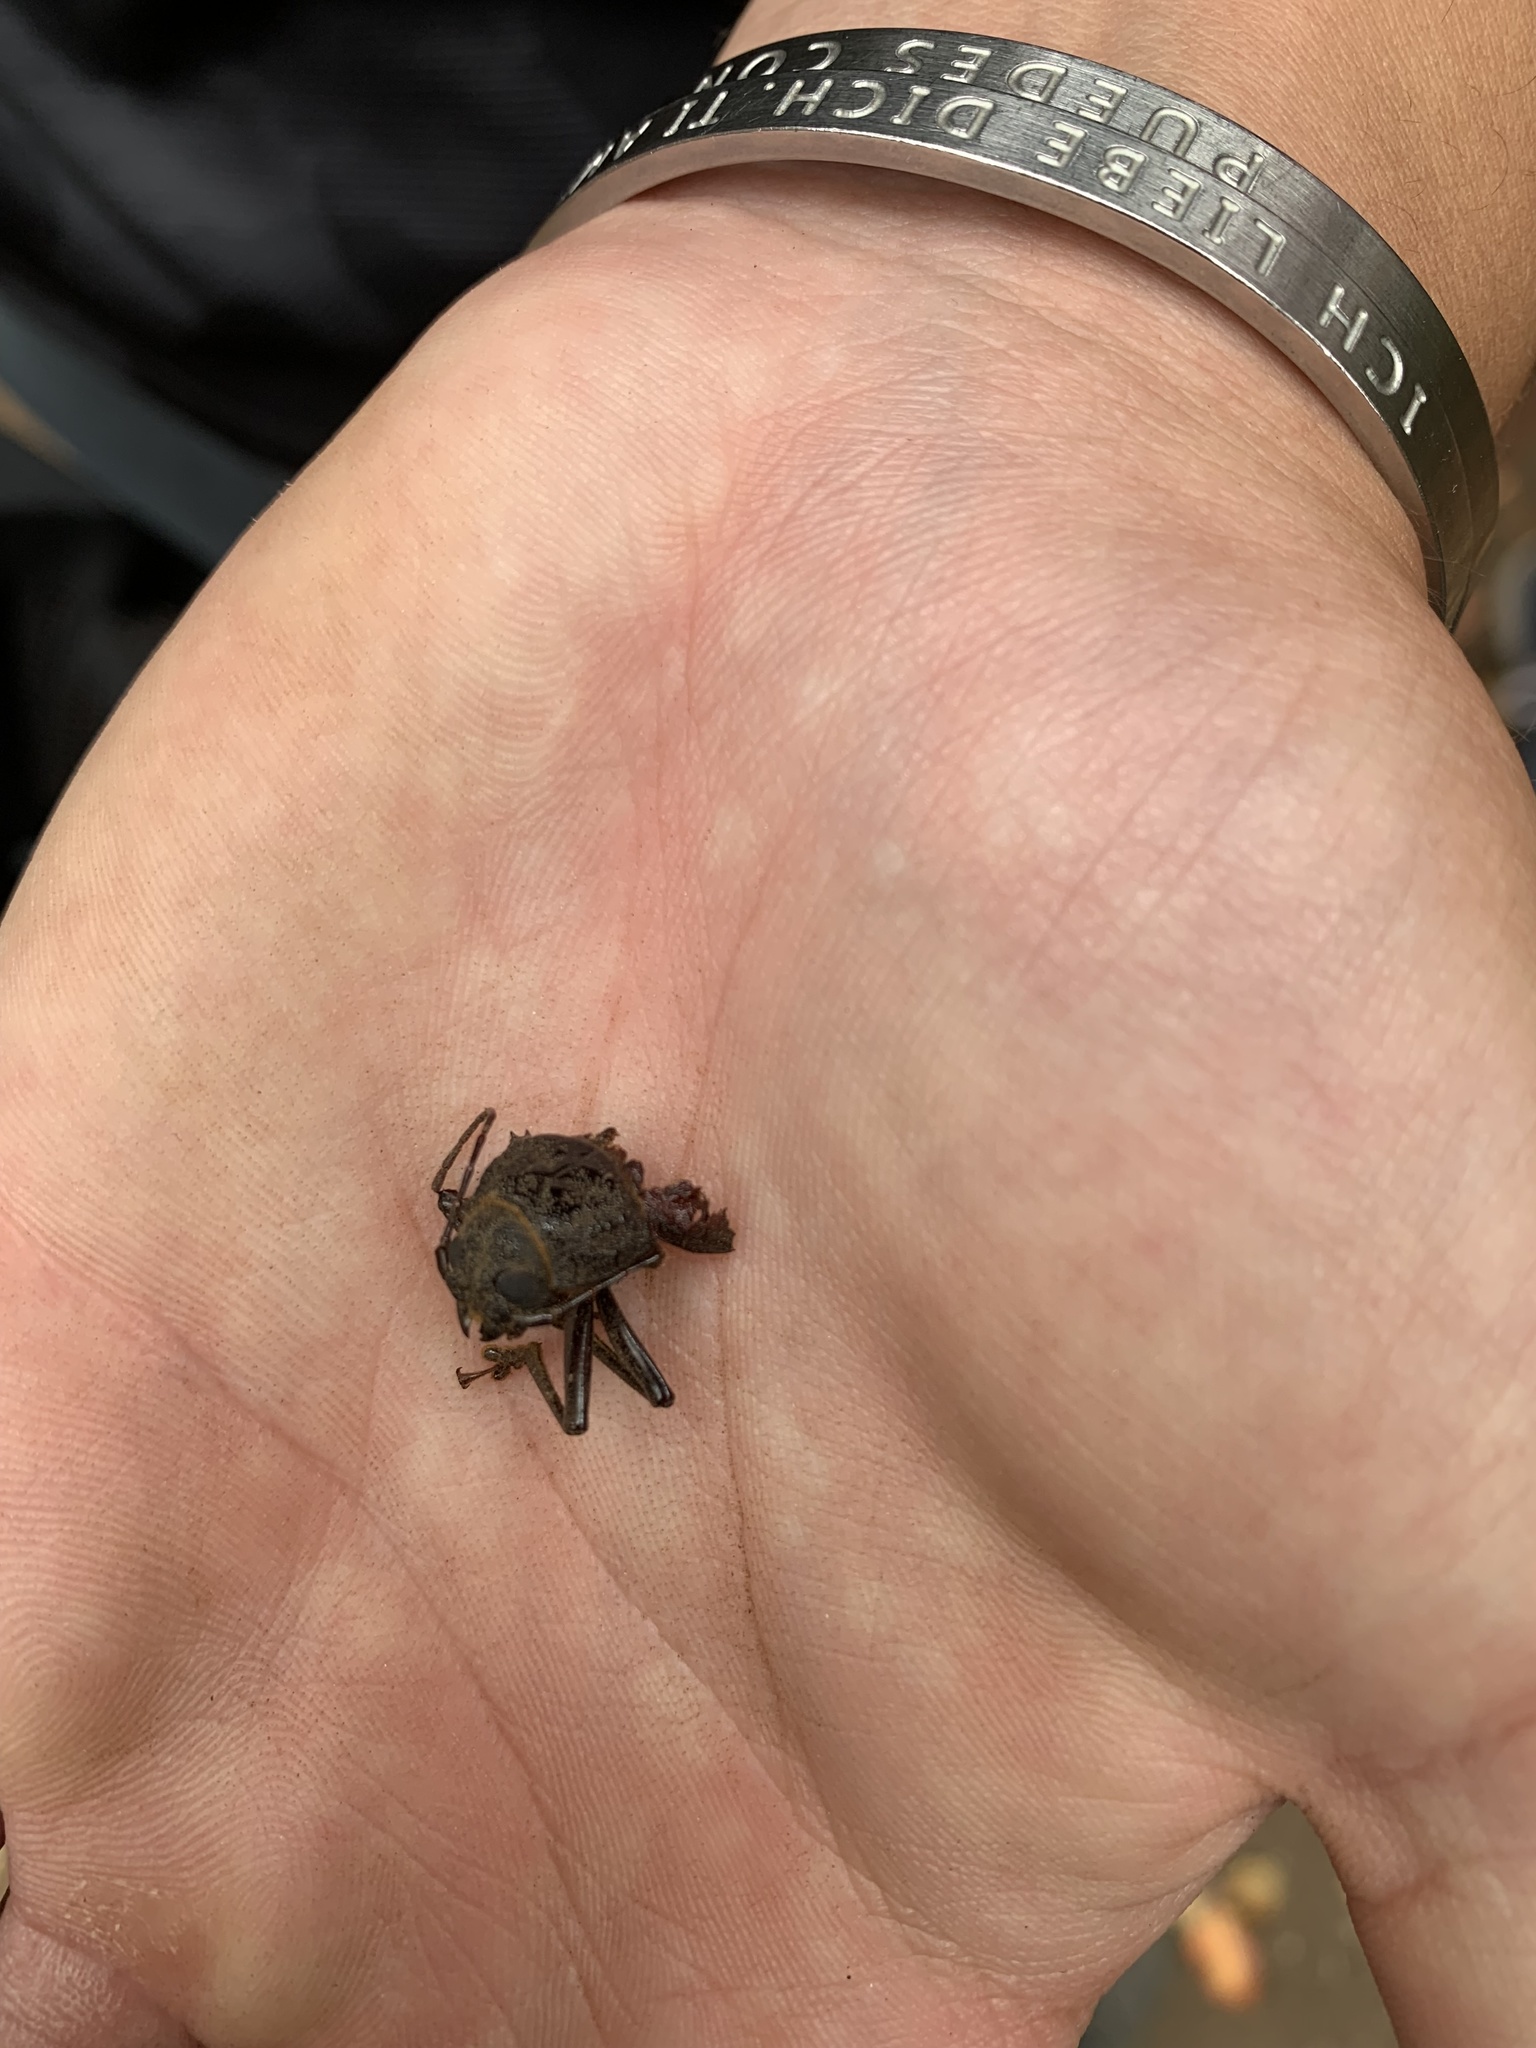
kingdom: Animalia
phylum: Arthropoda
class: Insecta
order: Coleoptera
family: Cerambycidae
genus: Chiasmetes
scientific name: Chiasmetes limae
